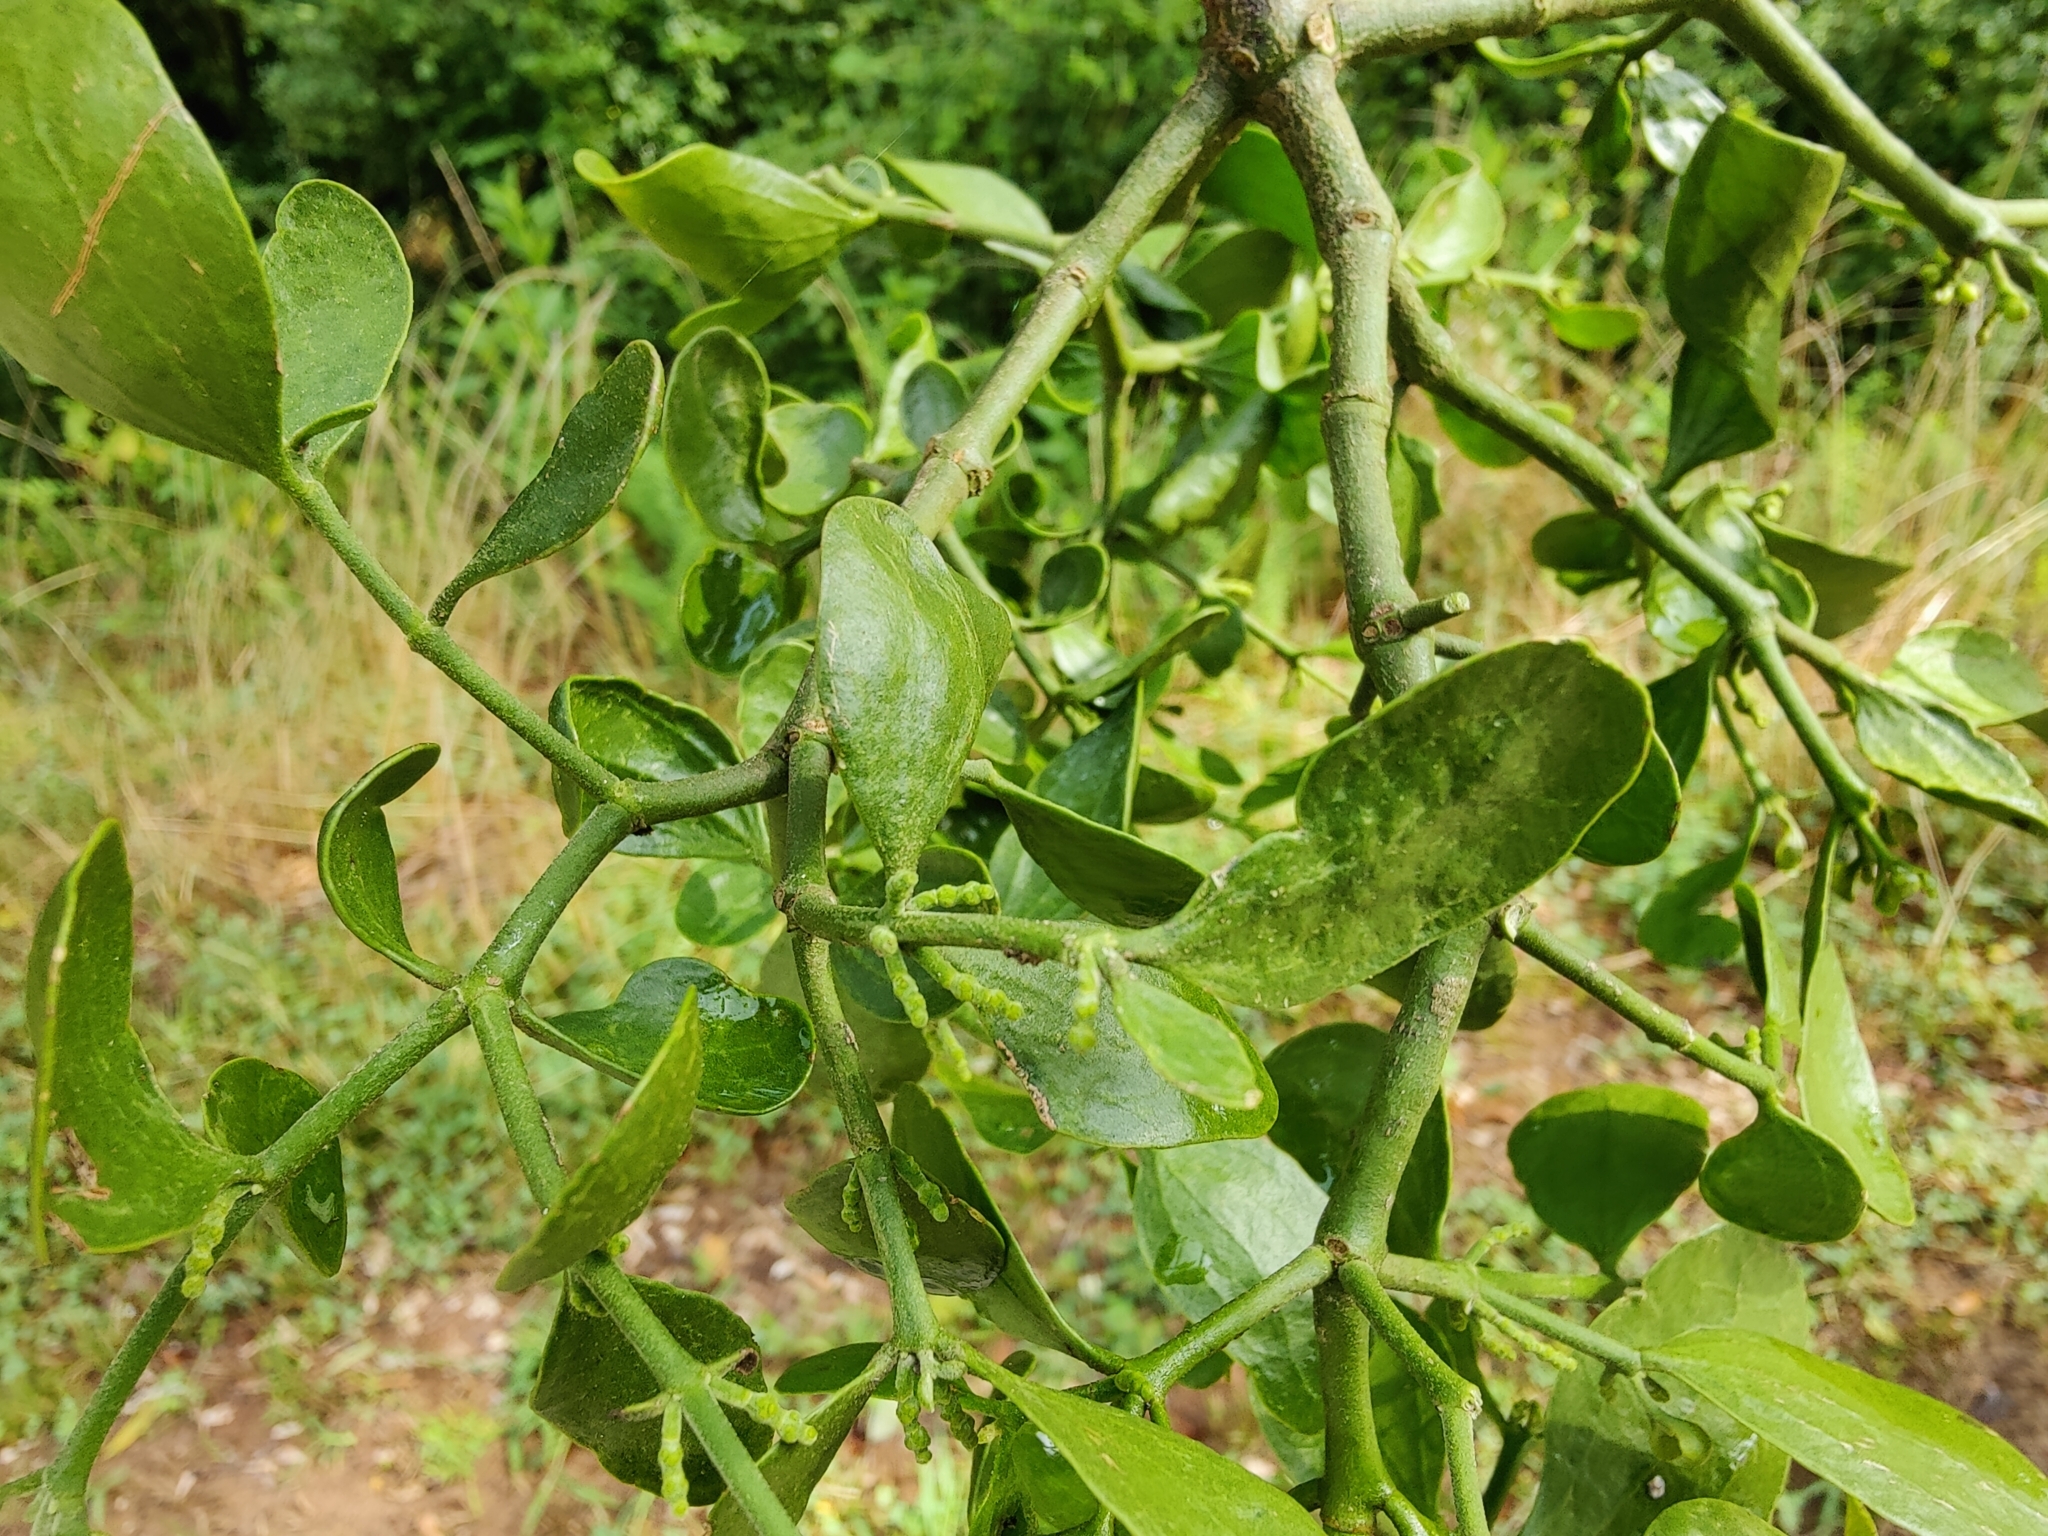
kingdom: Plantae
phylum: Tracheophyta
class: Magnoliopsida
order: Santalales
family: Viscaceae
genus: Phoradendron
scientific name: Phoradendron leucarpum
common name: Pacific mistletoe
